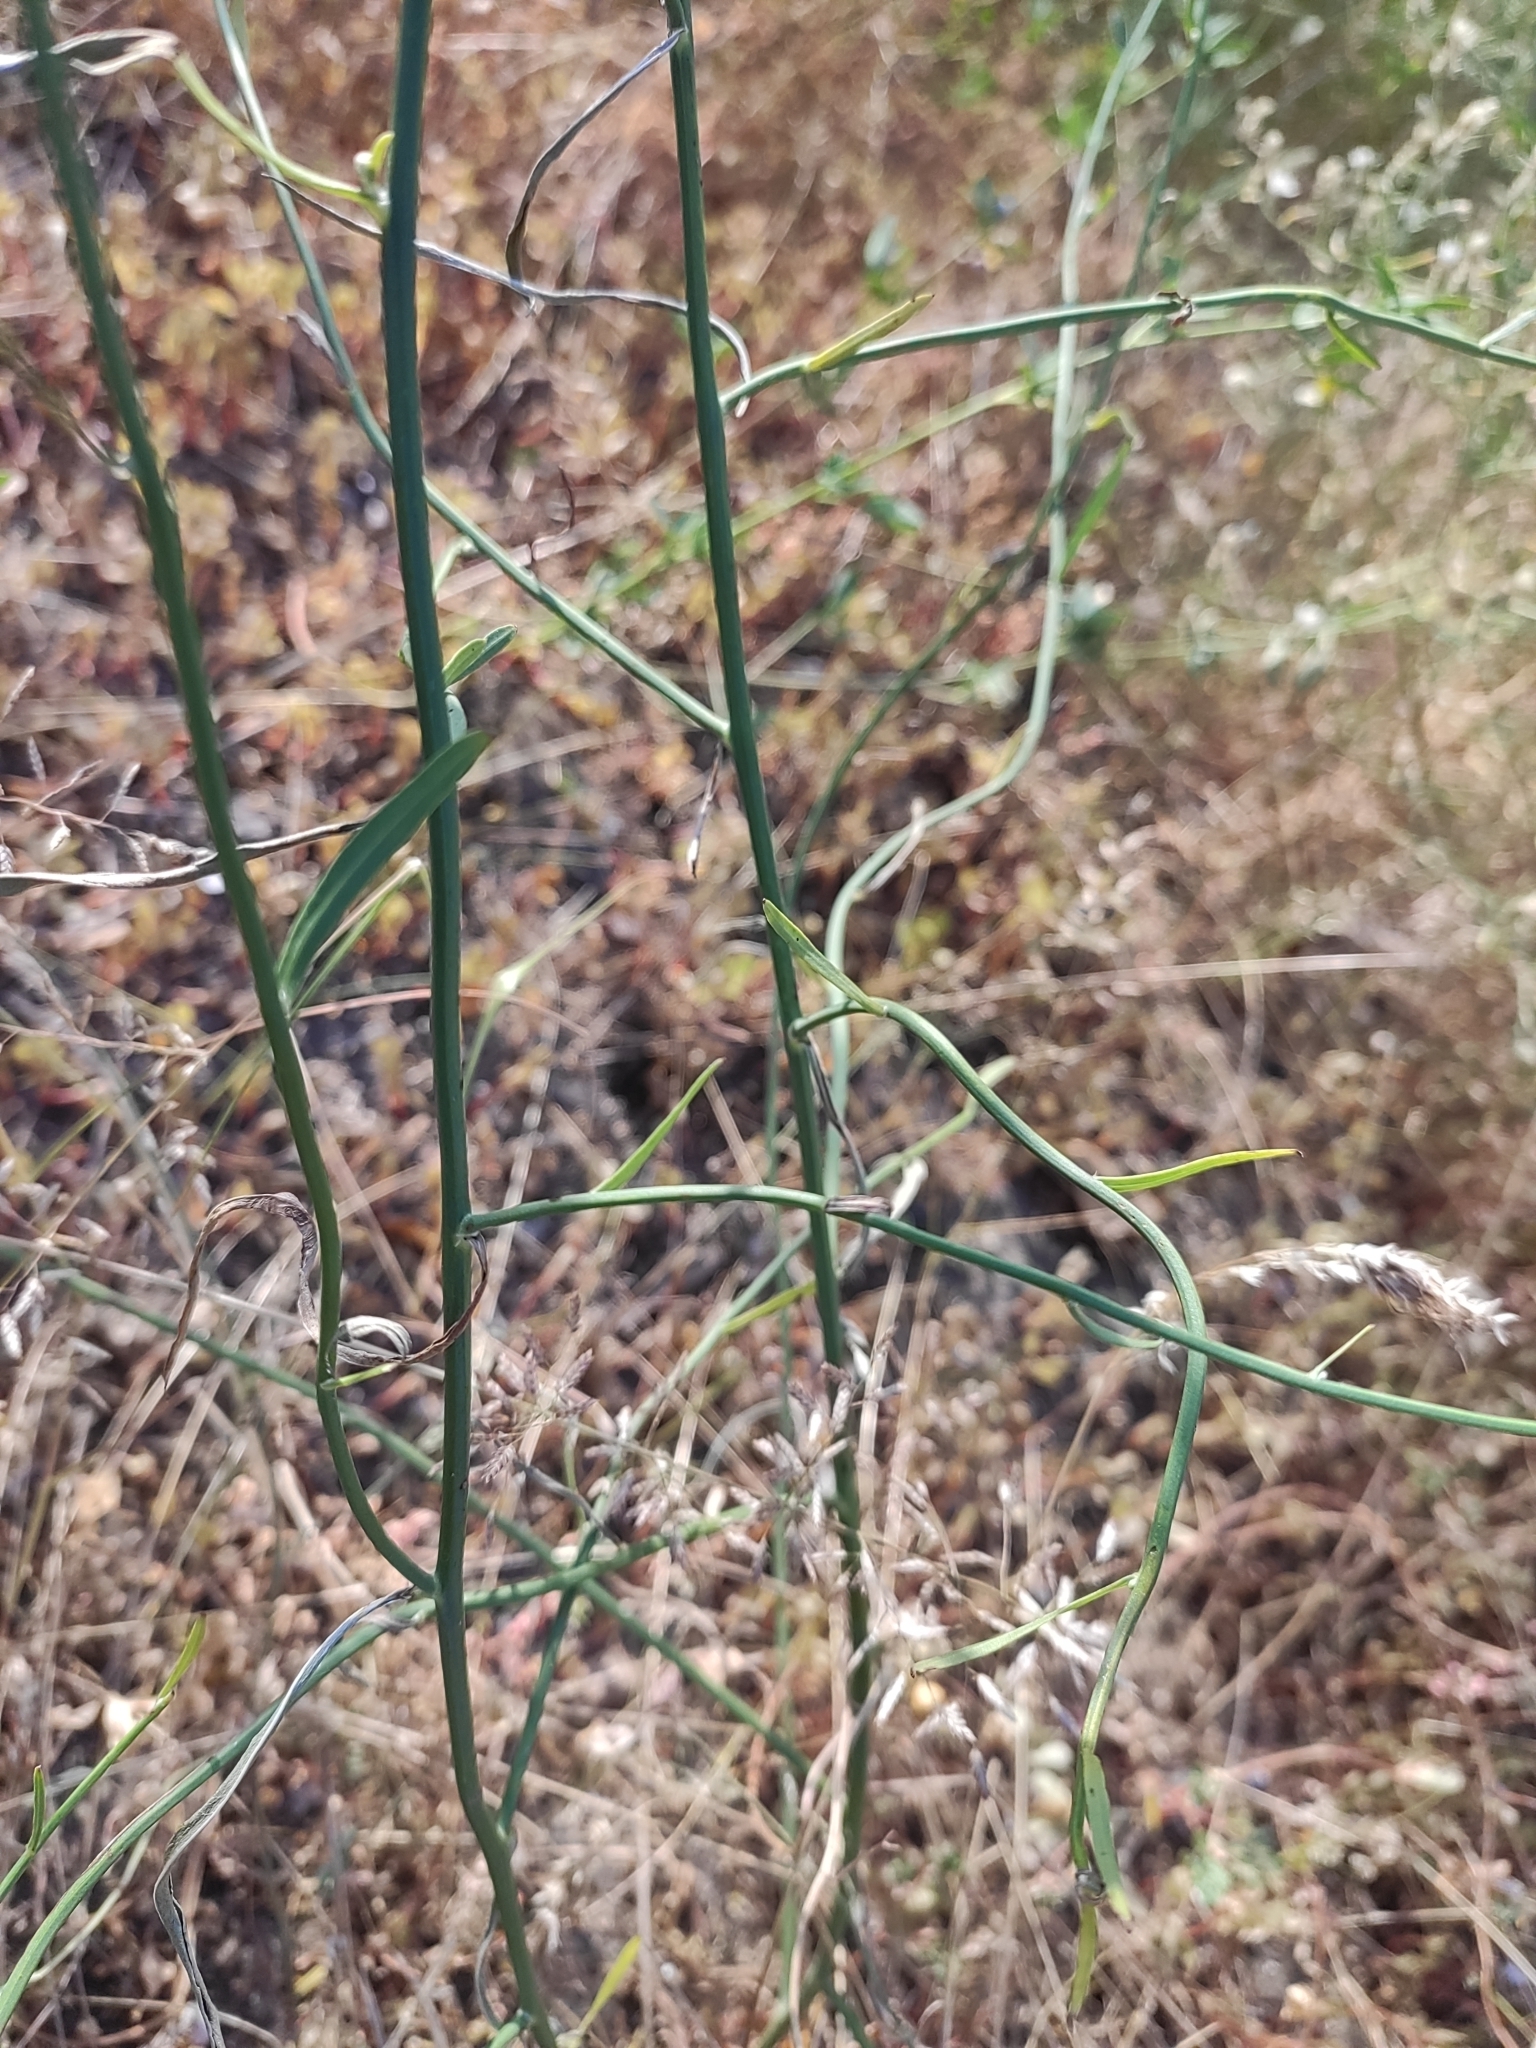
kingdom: Plantae
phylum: Tracheophyta
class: Magnoliopsida
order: Asterales
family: Asteraceae
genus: Chondrilla
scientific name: Chondrilla juncea
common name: Skeleton weed
